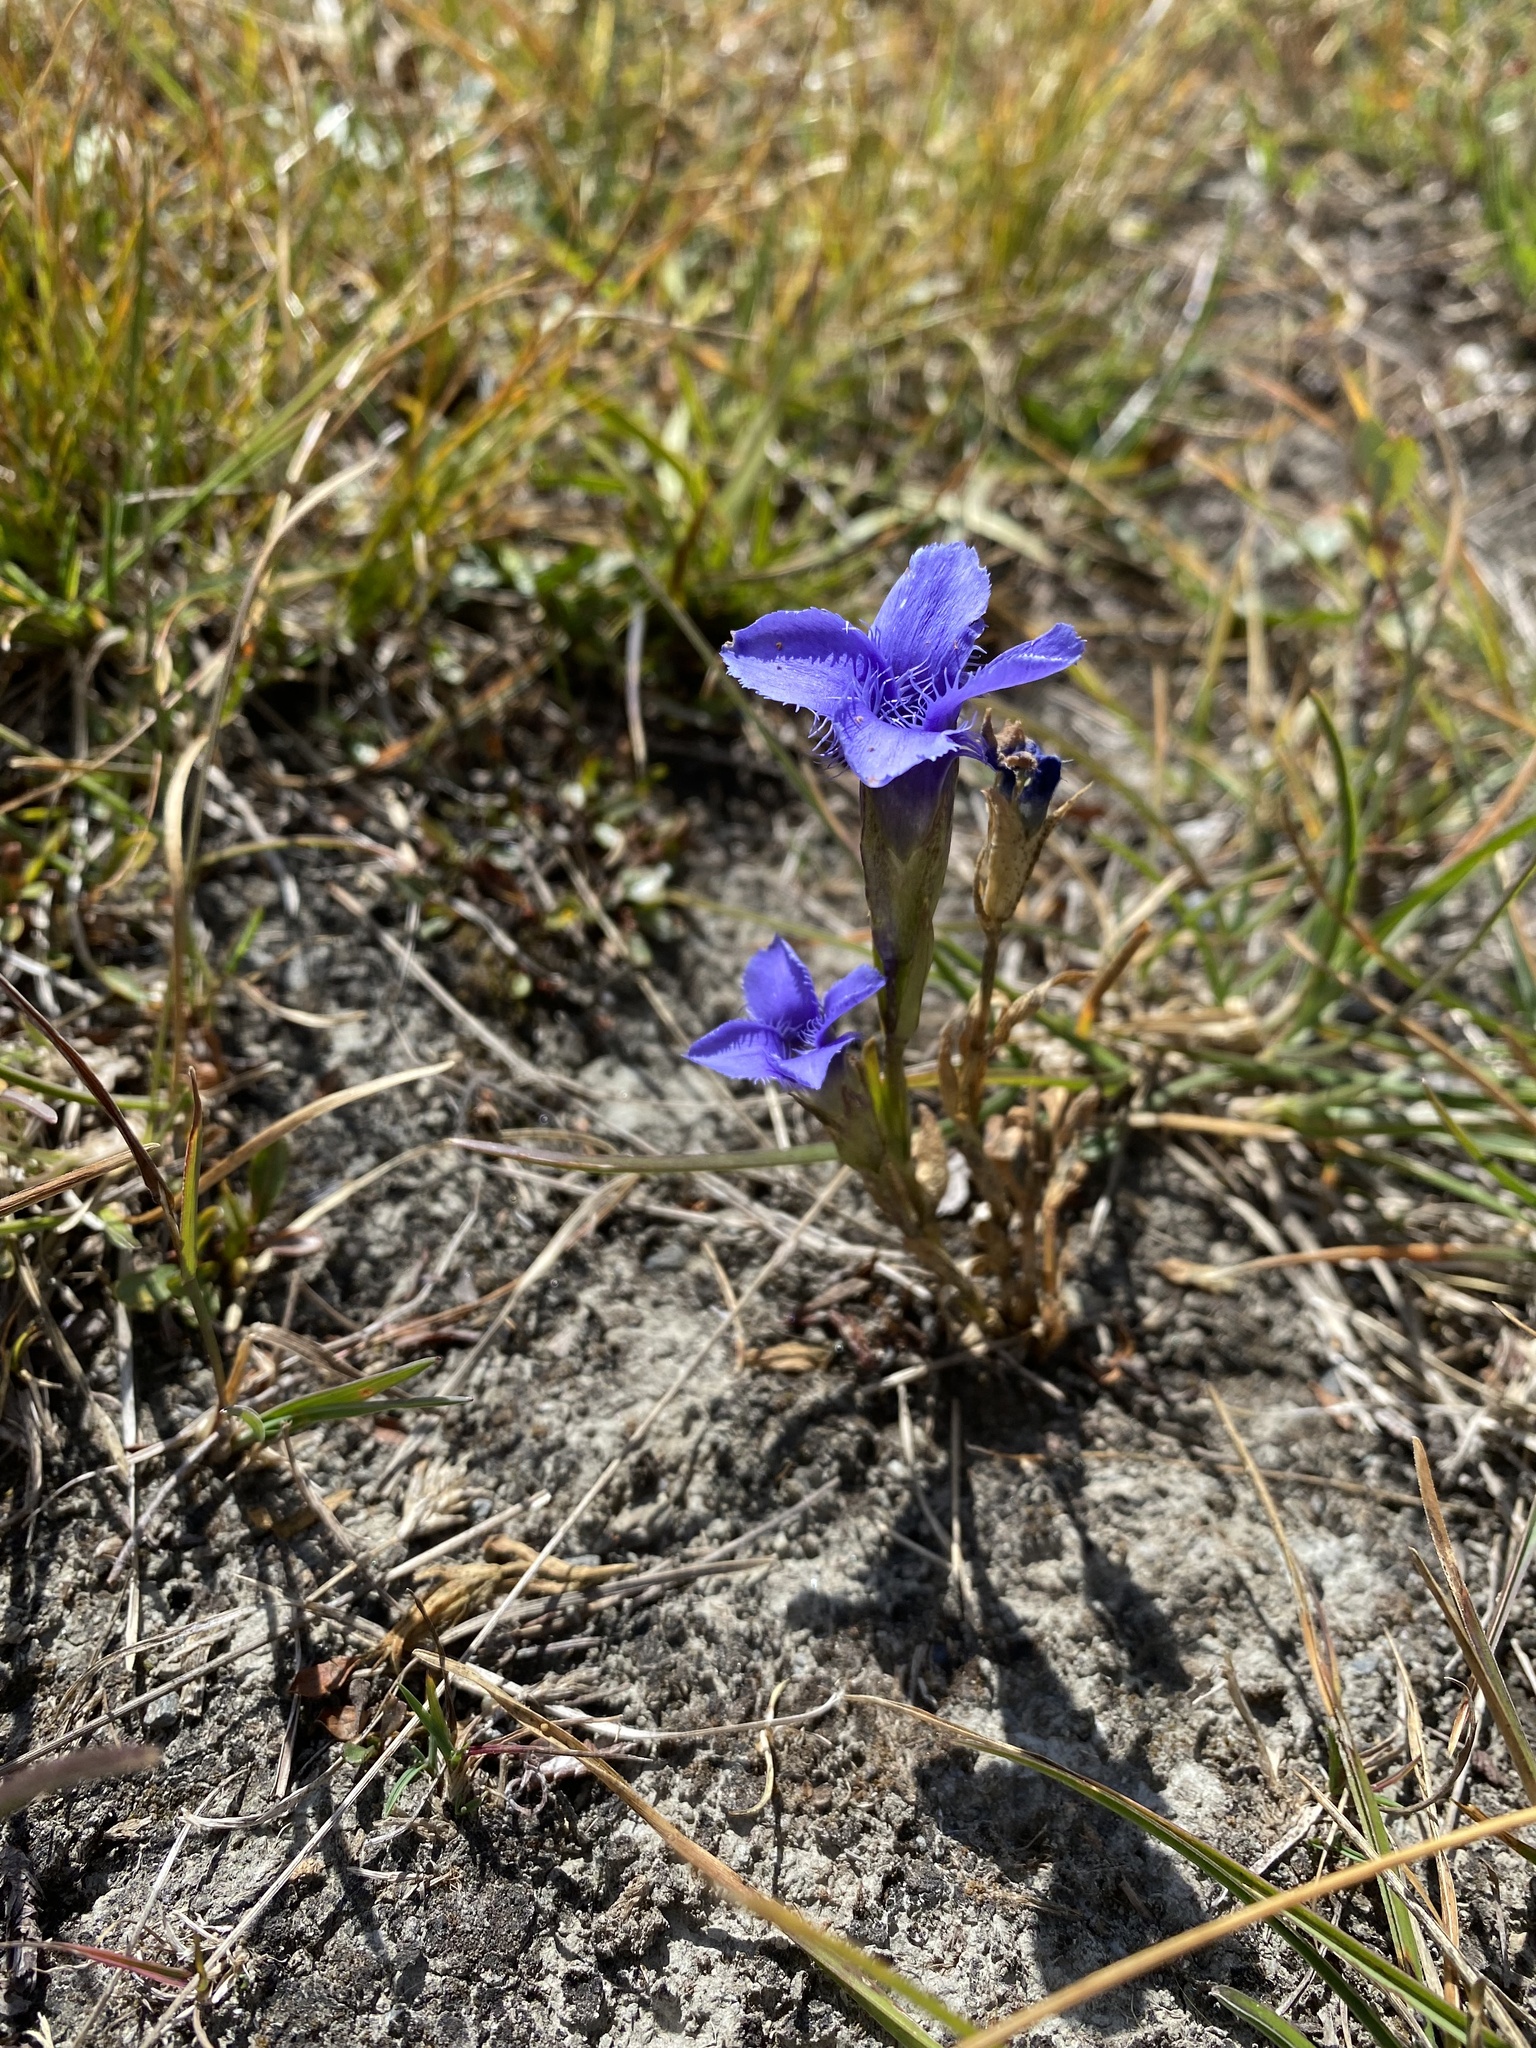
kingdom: Plantae
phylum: Tracheophyta
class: Magnoliopsida
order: Gentianales
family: Gentianaceae
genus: Gentianopsis
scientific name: Gentianopsis ciliata
